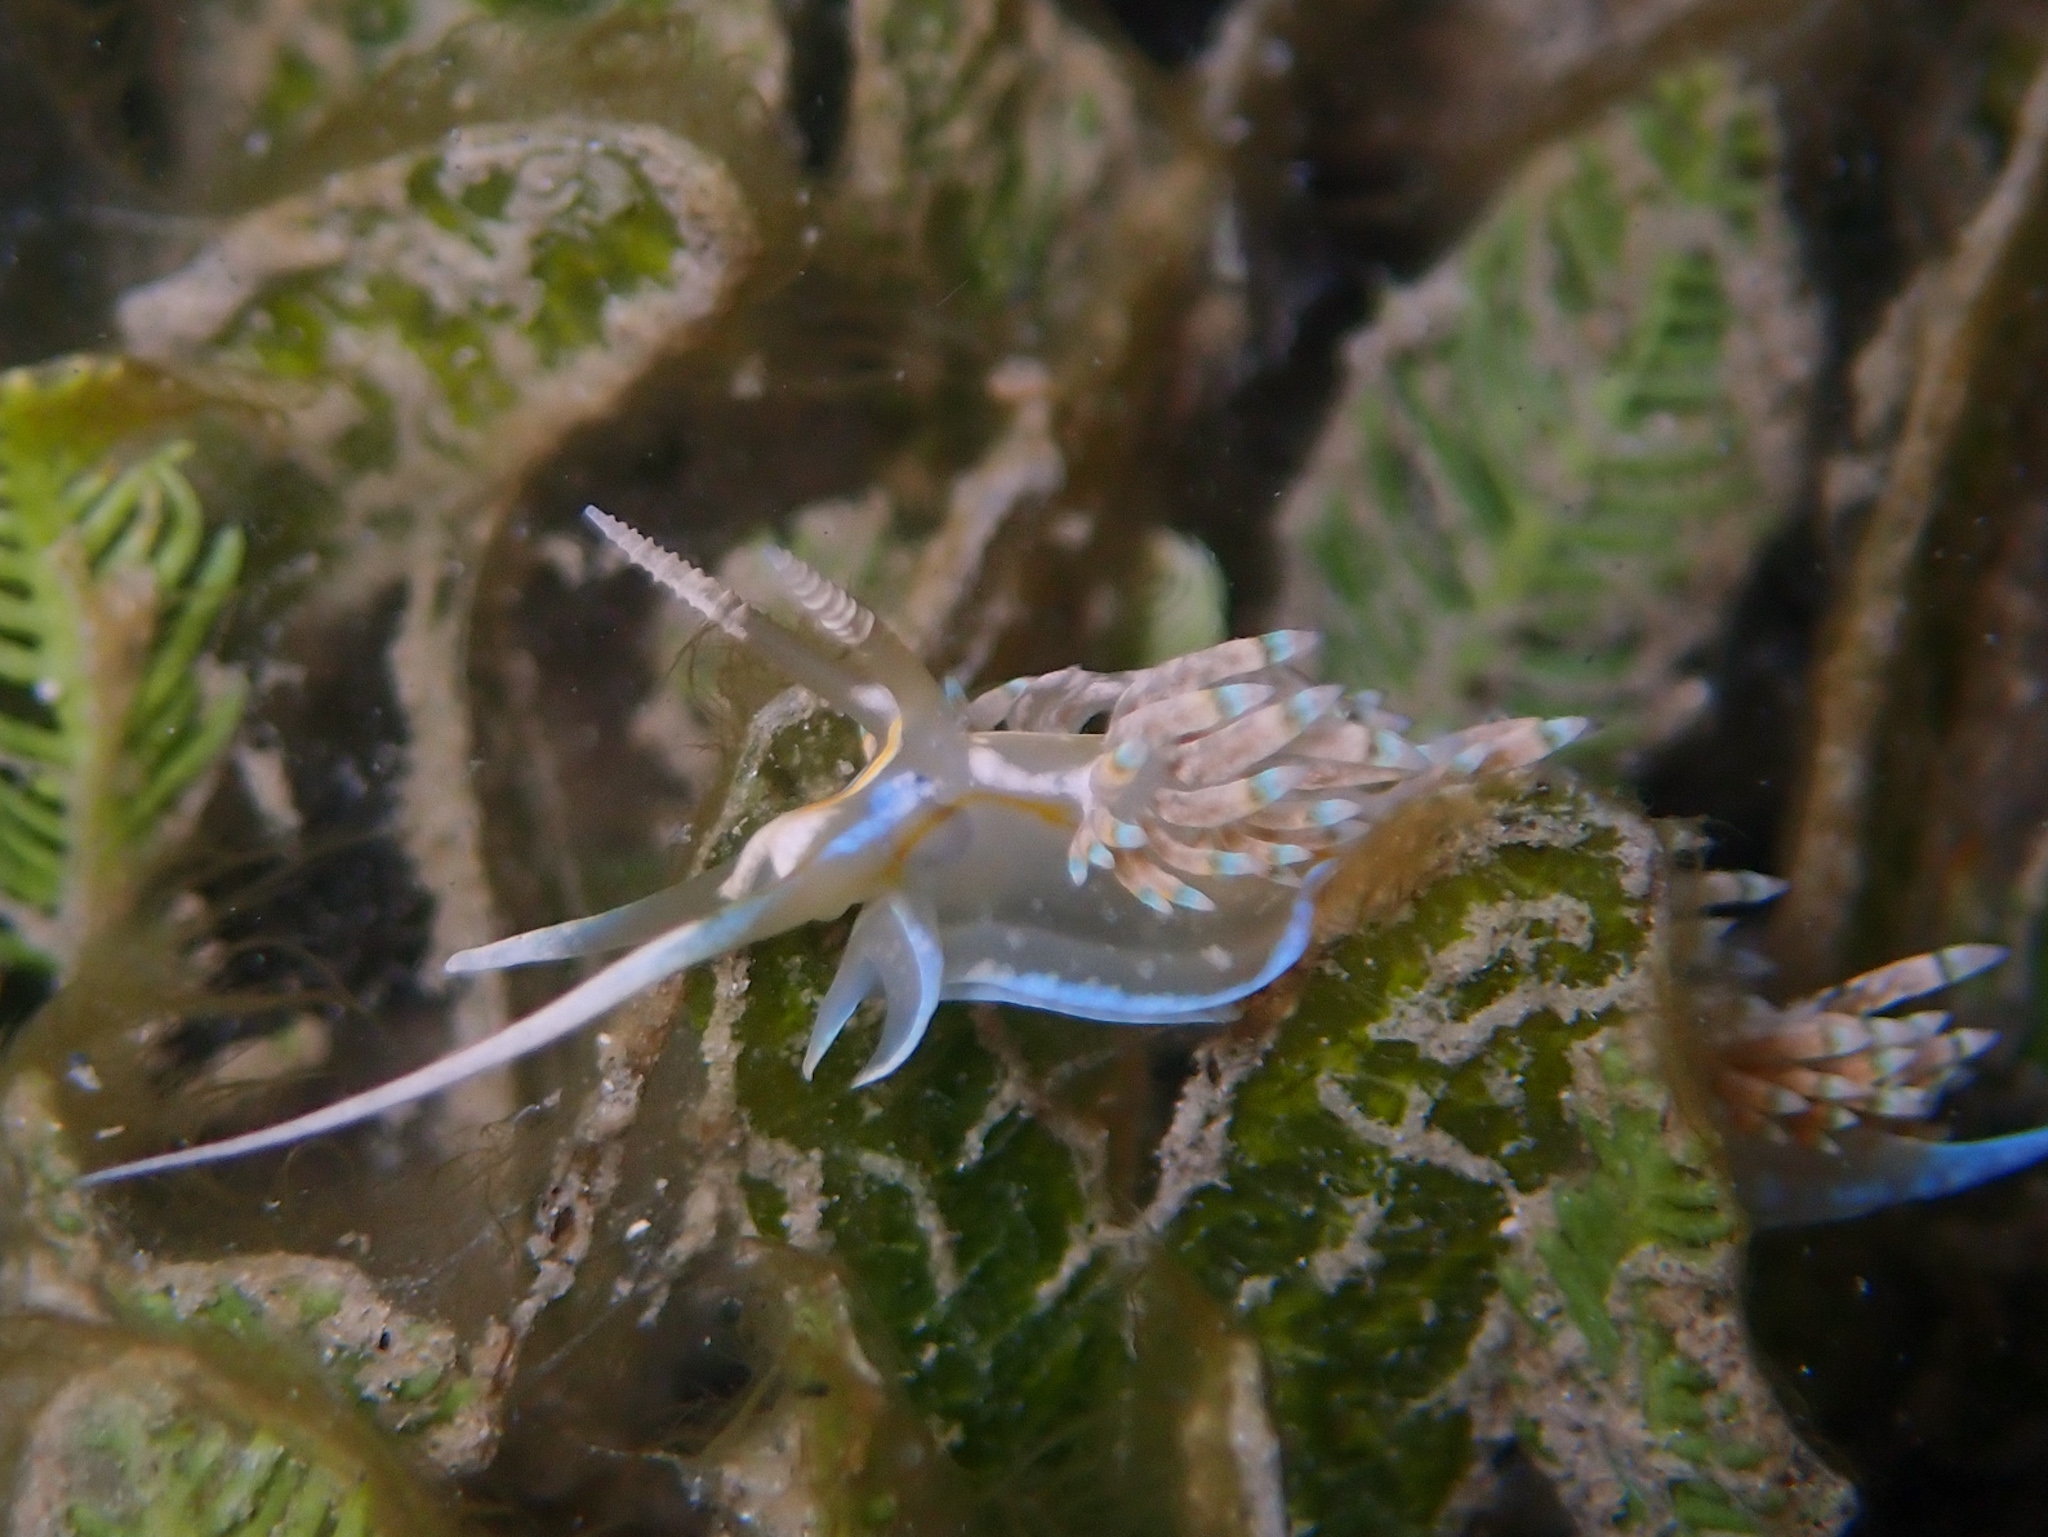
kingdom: Animalia
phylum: Mollusca
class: Gastropoda
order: Nudibranchia
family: Myrrhinidae
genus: Dondice
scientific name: Dondice occidentalis
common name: Fringe-back nudibranch
